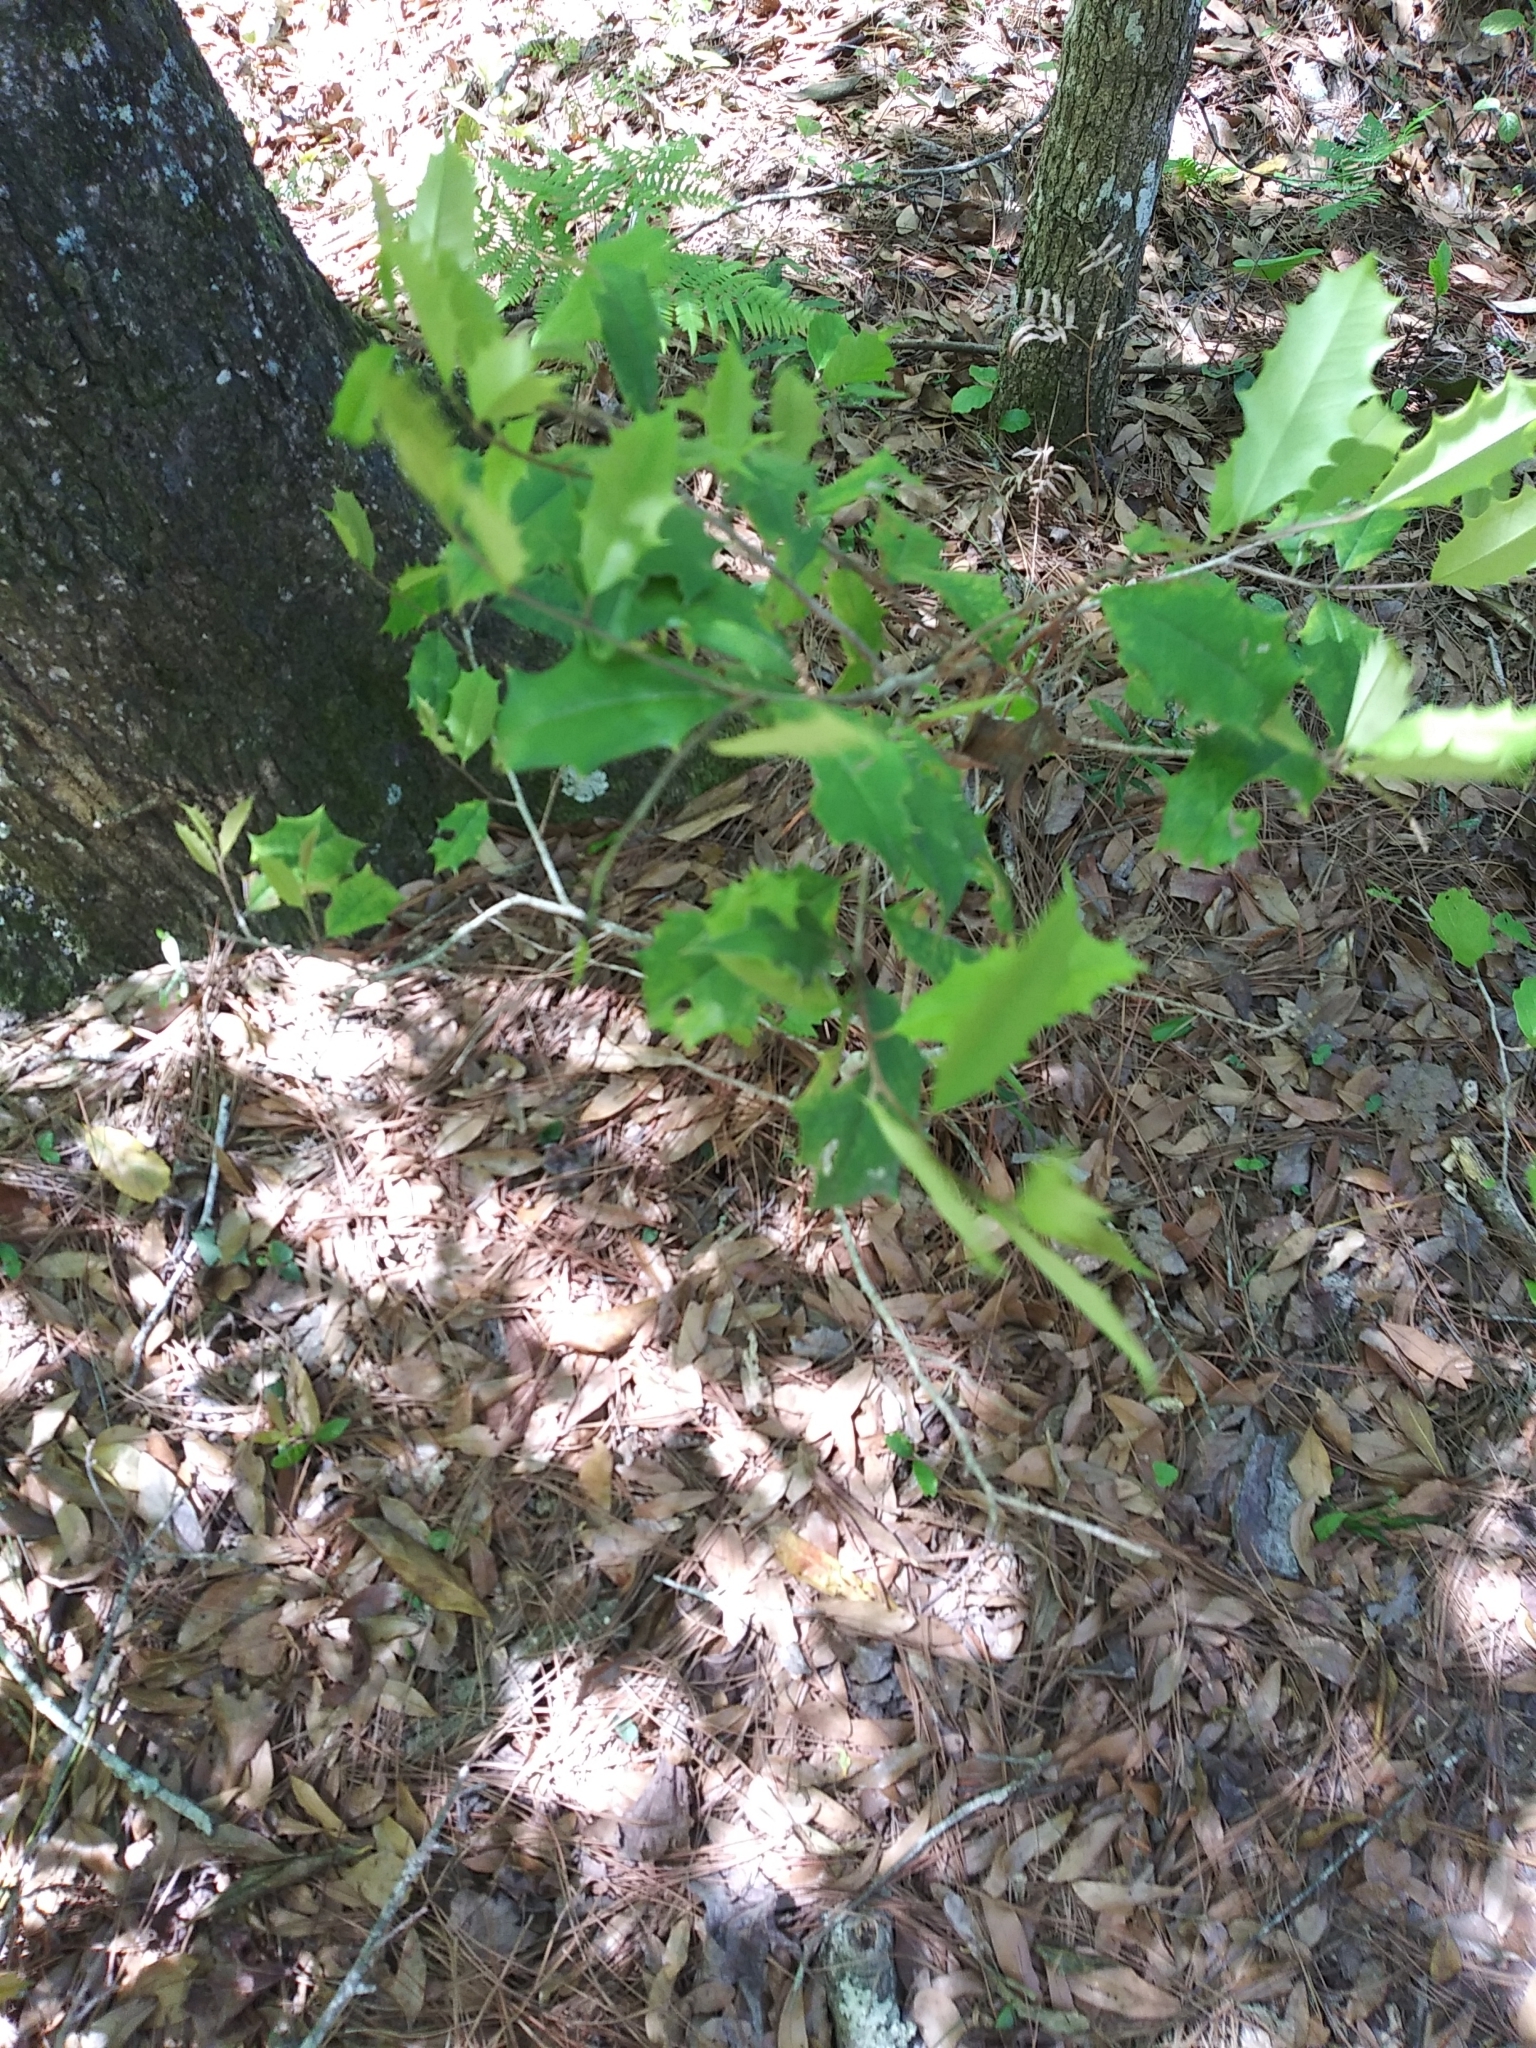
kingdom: Plantae
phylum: Tracheophyta
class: Magnoliopsida
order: Aquifoliales
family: Aquifoliaceae
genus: Ilex
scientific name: Ilex opaca
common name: American holly
